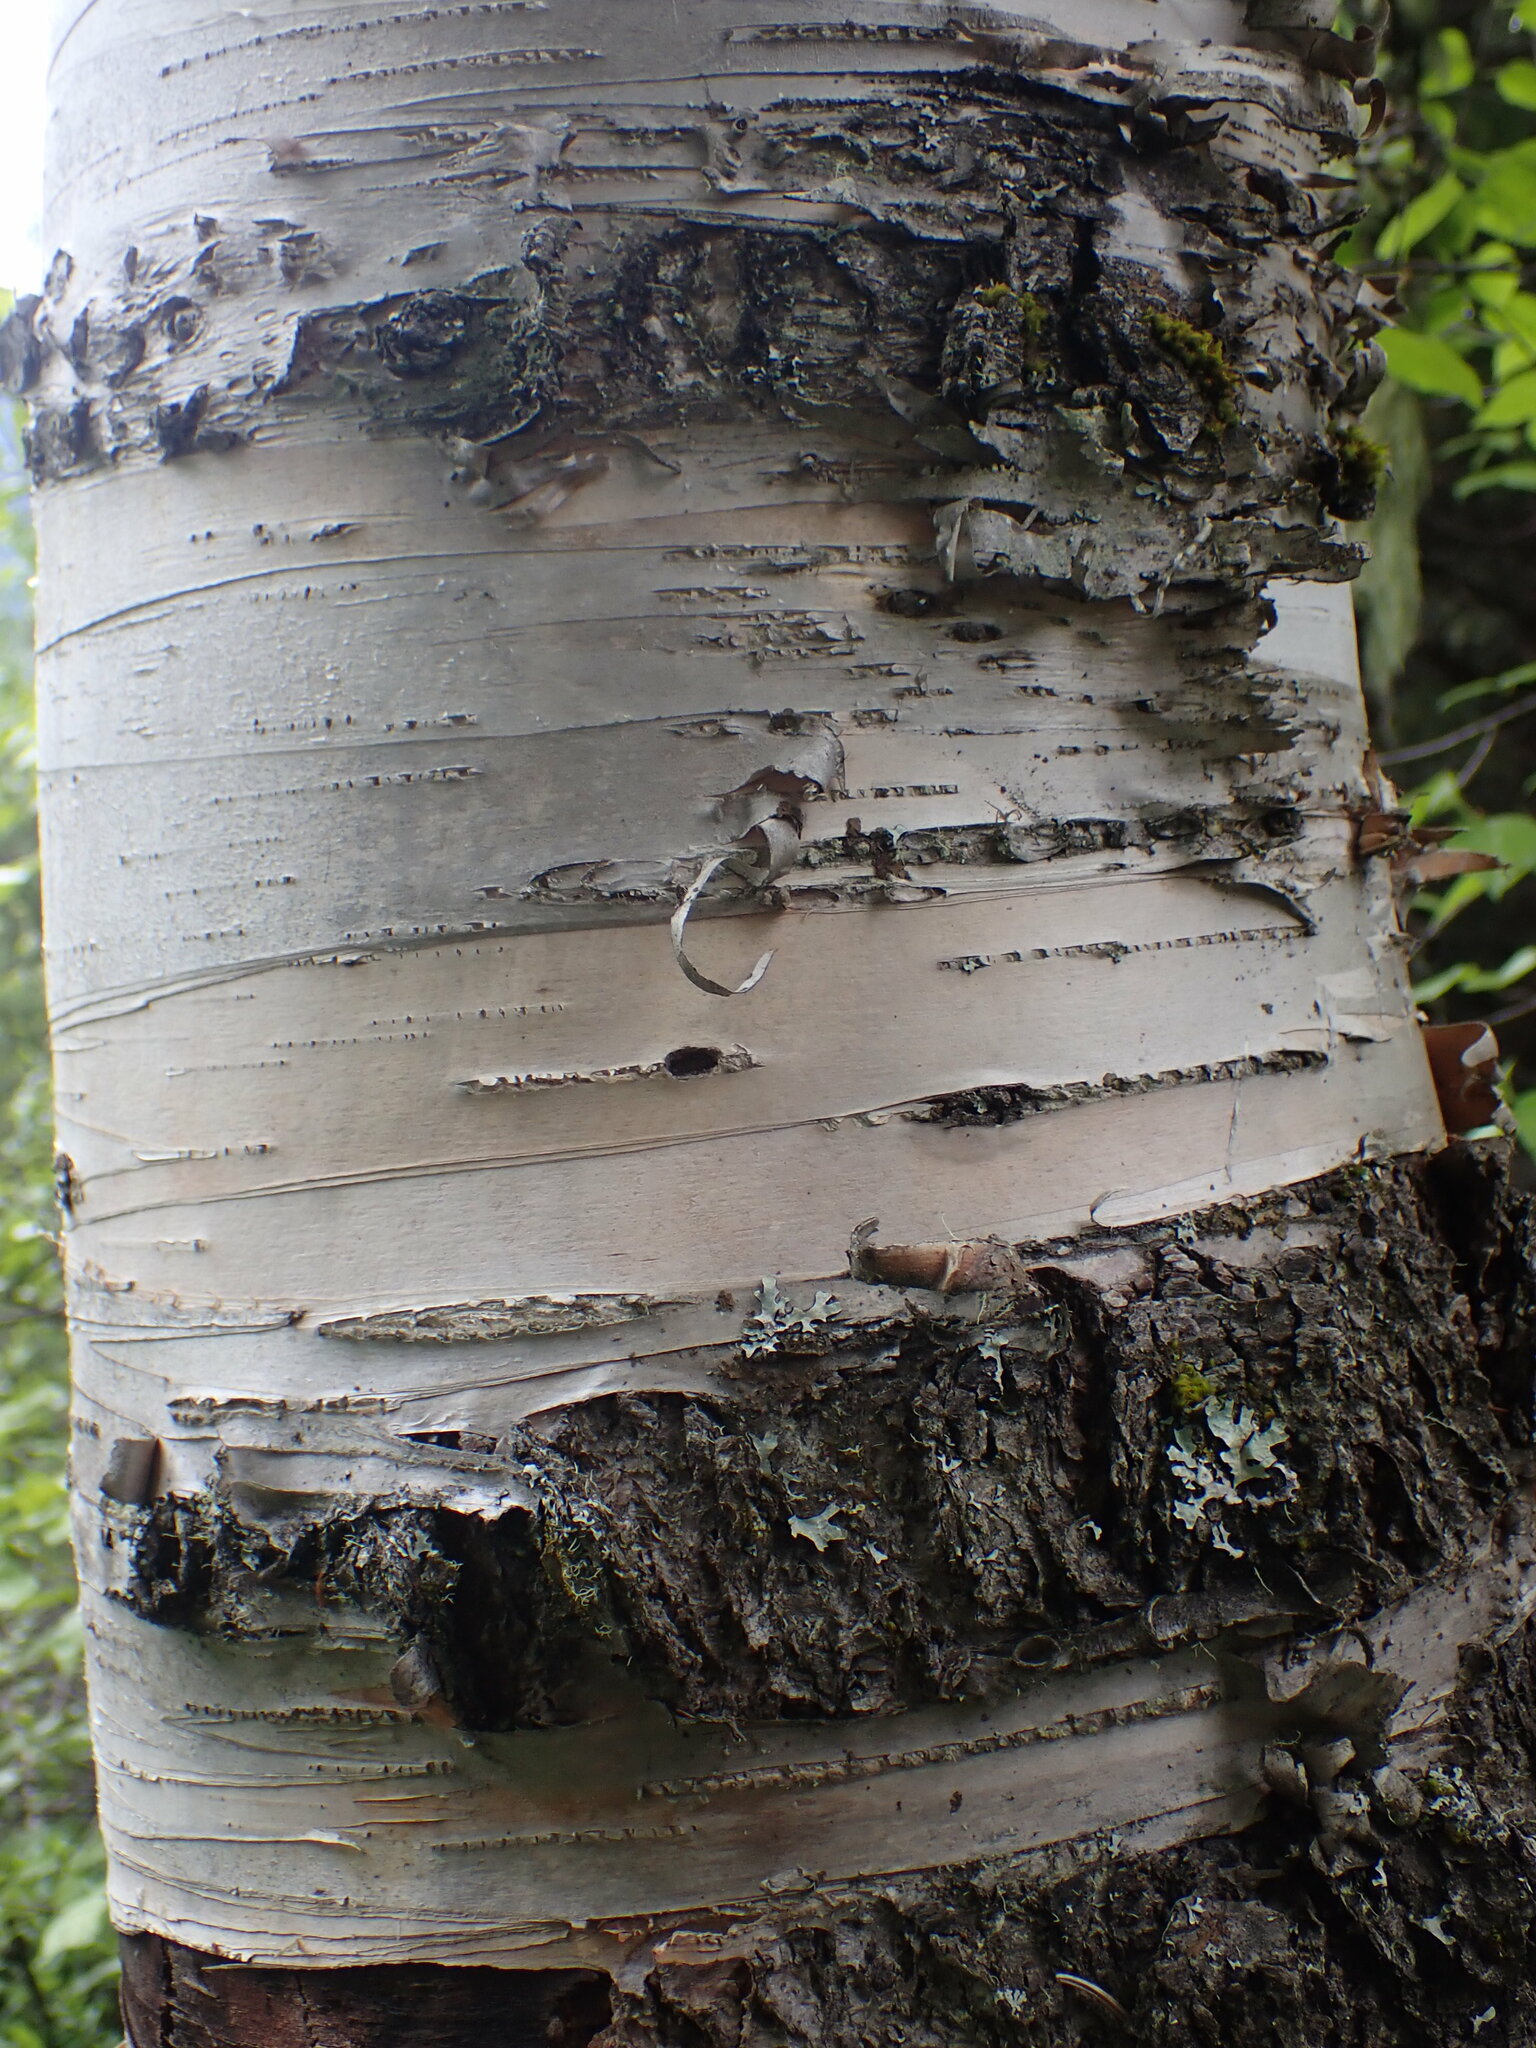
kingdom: Plantae
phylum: Tracheophyta
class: Magnoliopsida
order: Fagales
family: Betulaceae
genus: Betula
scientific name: Betula papyrifera
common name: Paper birch
